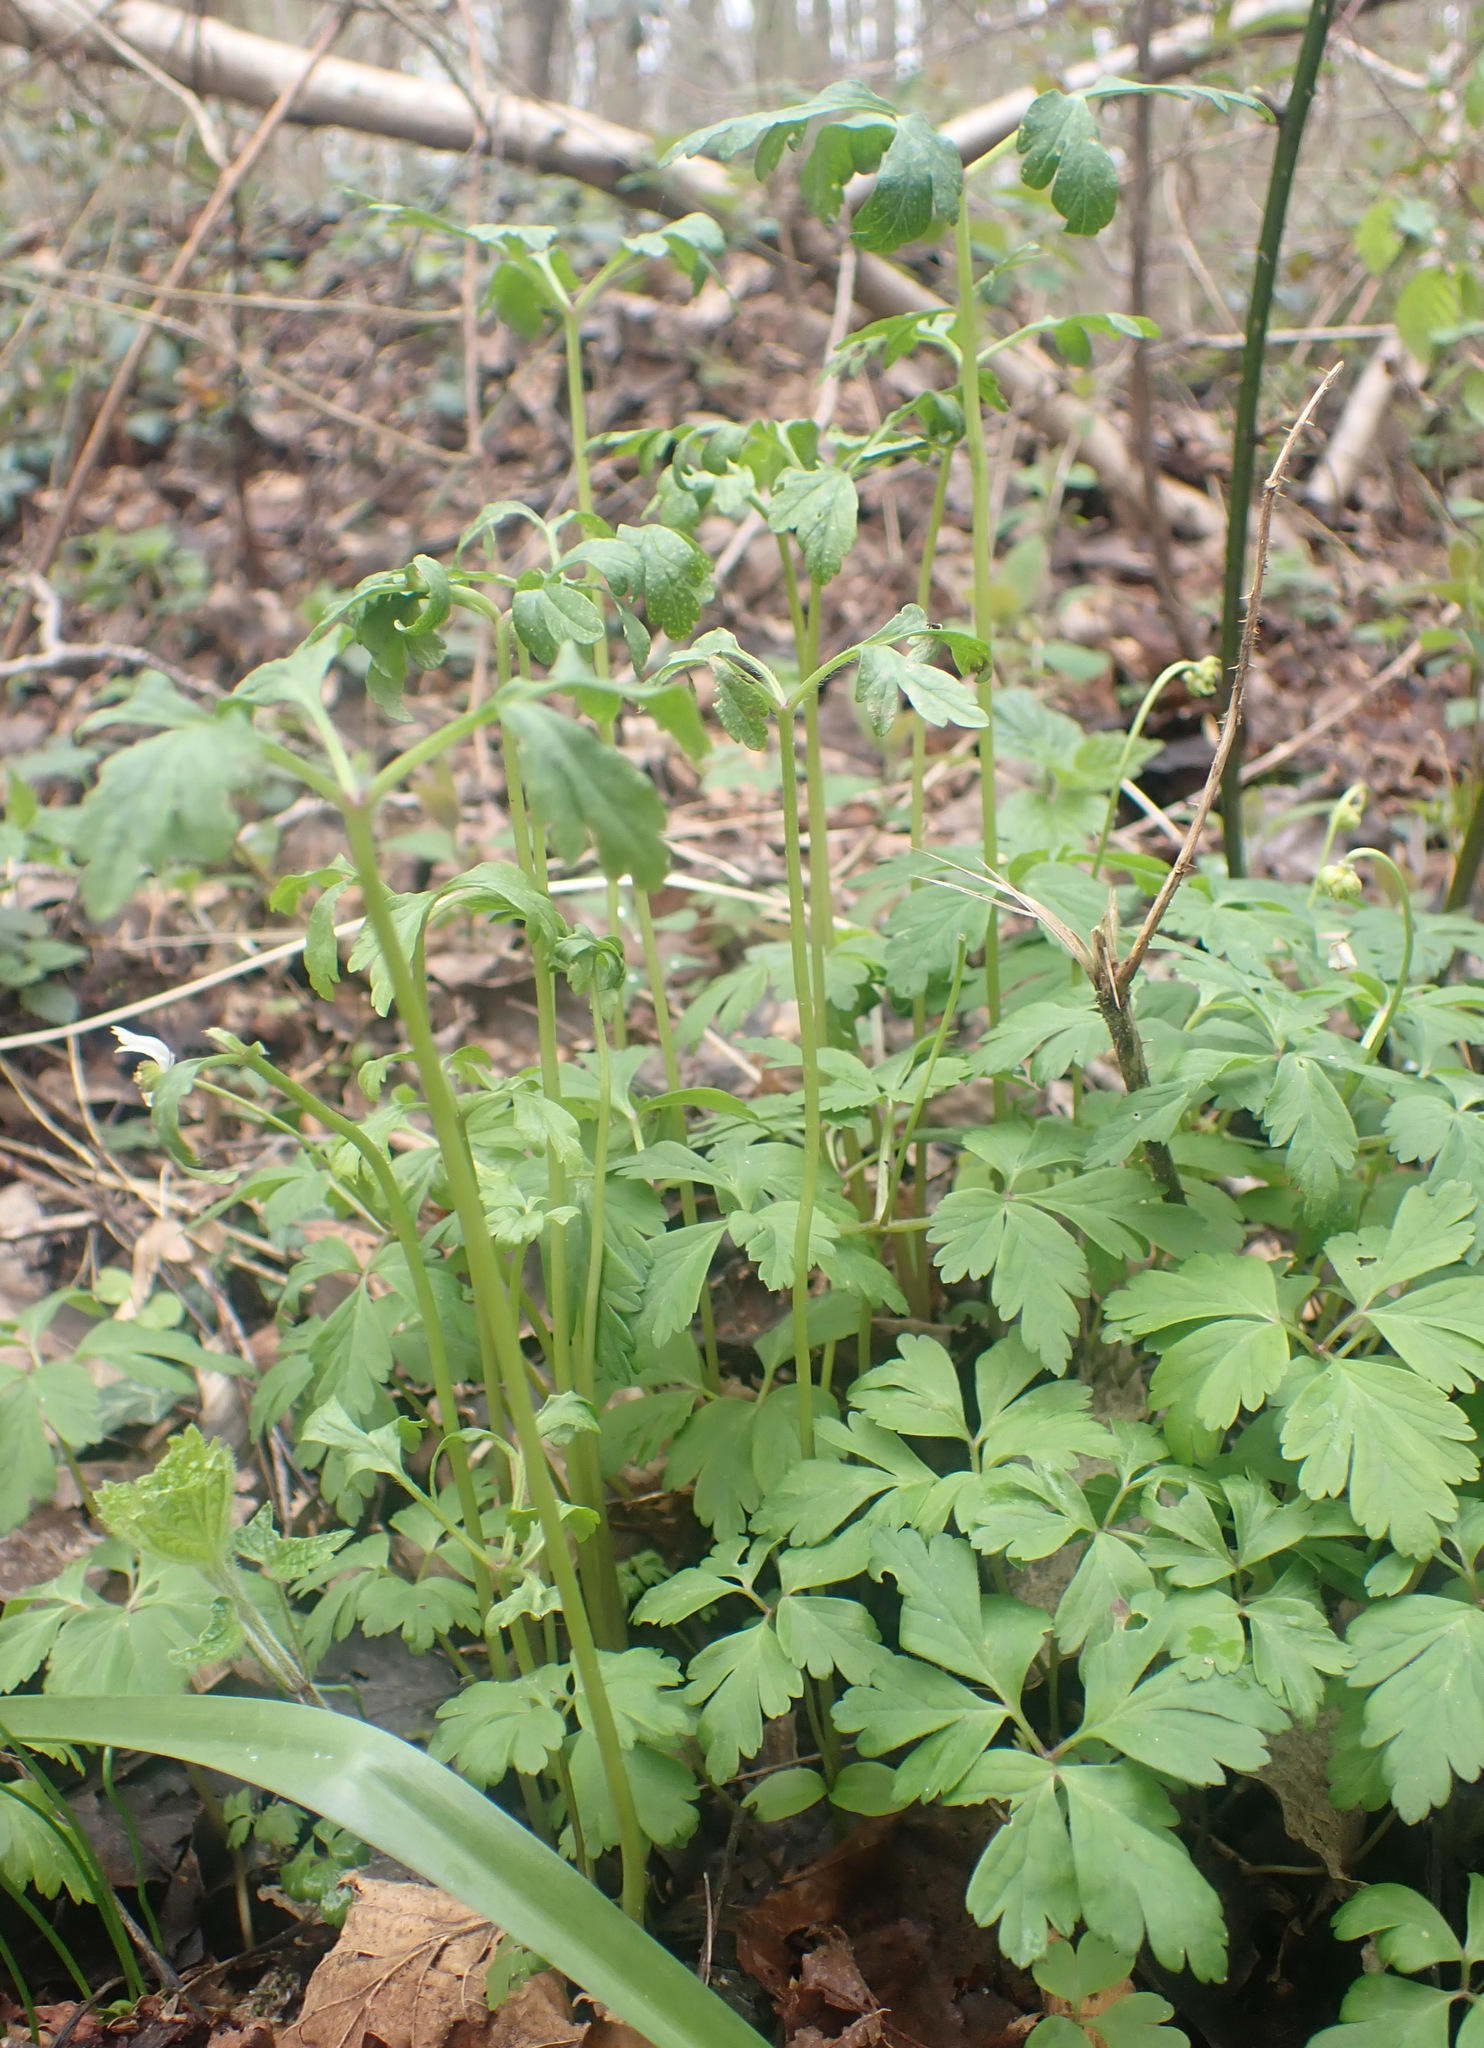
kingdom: Fungi
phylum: Basidiomycota
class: Pucciniomycetes
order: Pucciniales
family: Ochropsoraceae
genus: Ochropsora
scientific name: Ochropsora ariae
